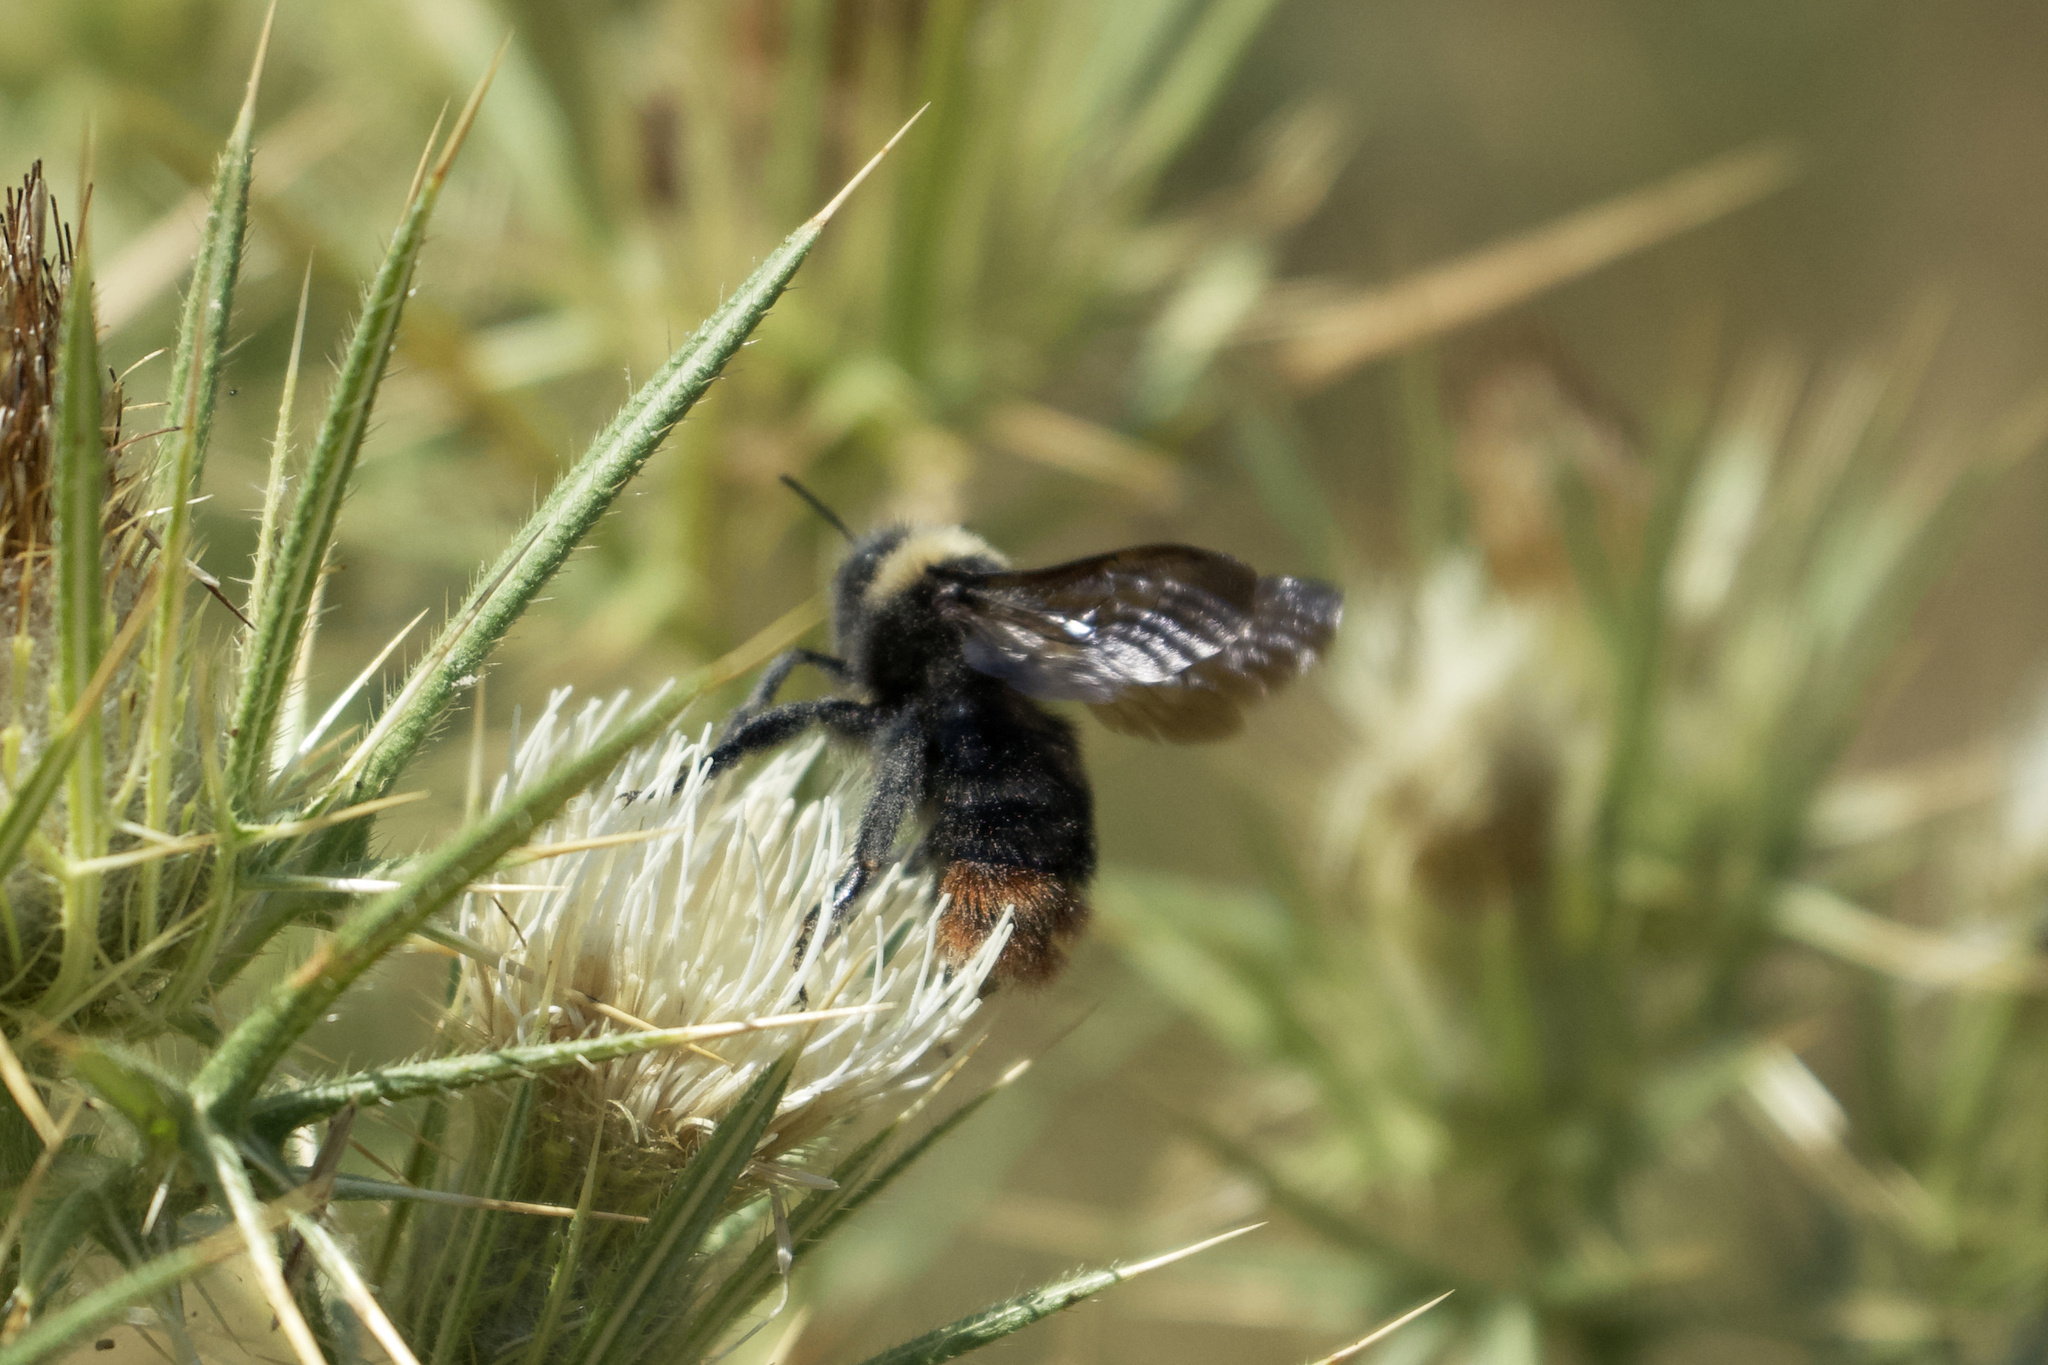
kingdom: Animalia
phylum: Arthropoda
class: Insecta
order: Hymenoptera
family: Apidae
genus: Bombus
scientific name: Bombus rupestris
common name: Hill cuckoo-bee
